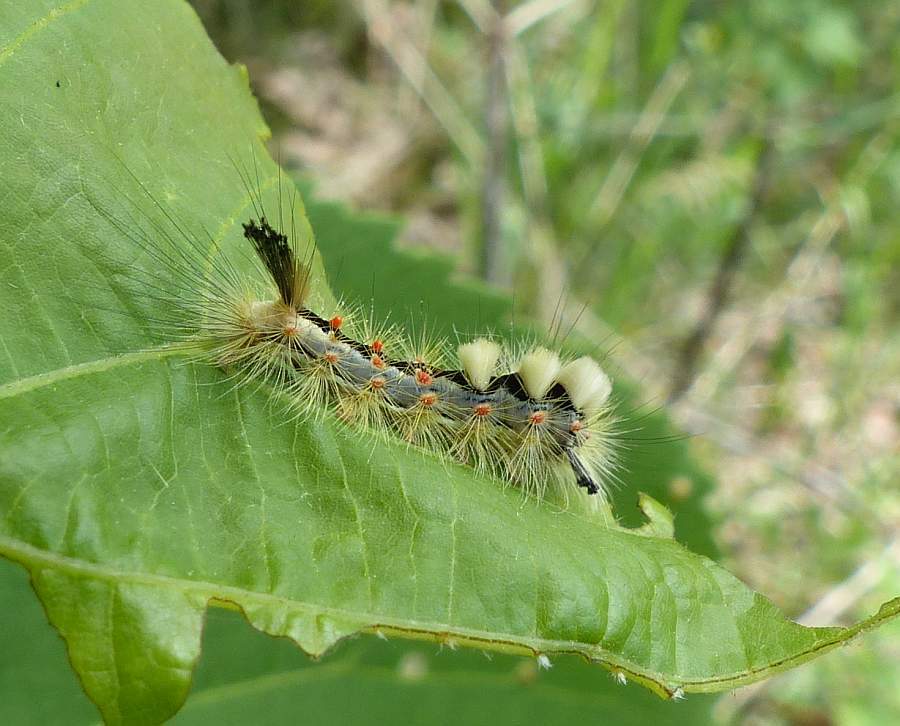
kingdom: Animalia
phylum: Arthropoda
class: Insecta
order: Lepidoptera
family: Erebidae
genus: Orgyia
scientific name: Orgyia antiqua
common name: Vapourer
